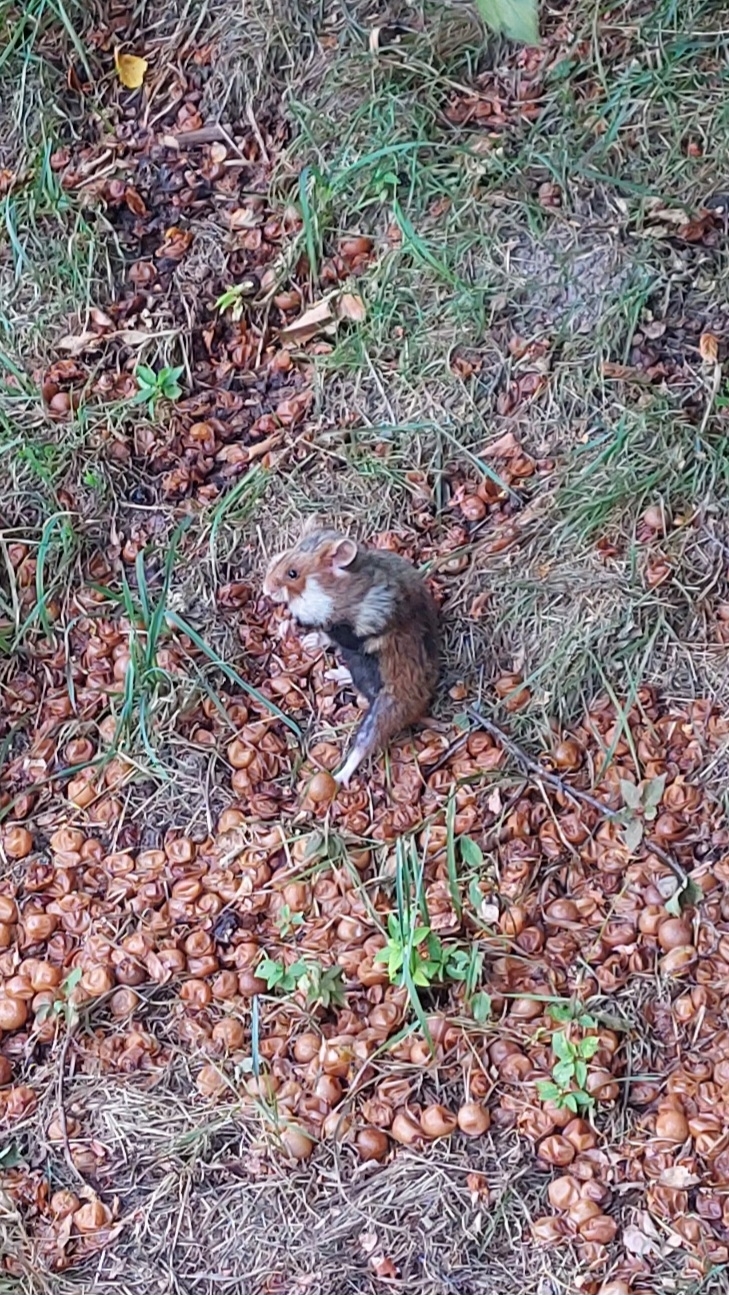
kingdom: Animalia
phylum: Chordata
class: Mammalia
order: Rodentia
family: Cricetidae
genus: Cricetus
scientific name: Cricetus cricetus
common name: Common hamster
